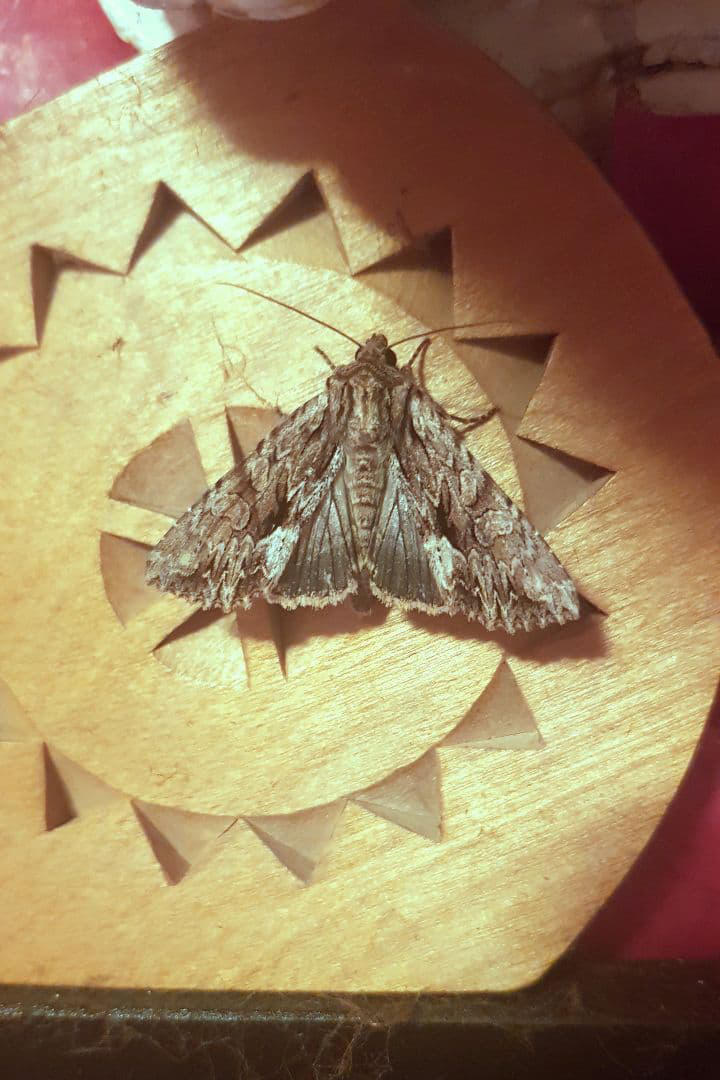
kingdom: Animalia
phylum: Arthropoda
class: Insecta
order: Lepidoptera
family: Noctuidae
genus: Apamea
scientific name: Apamea monoglypha
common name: Dark arches
